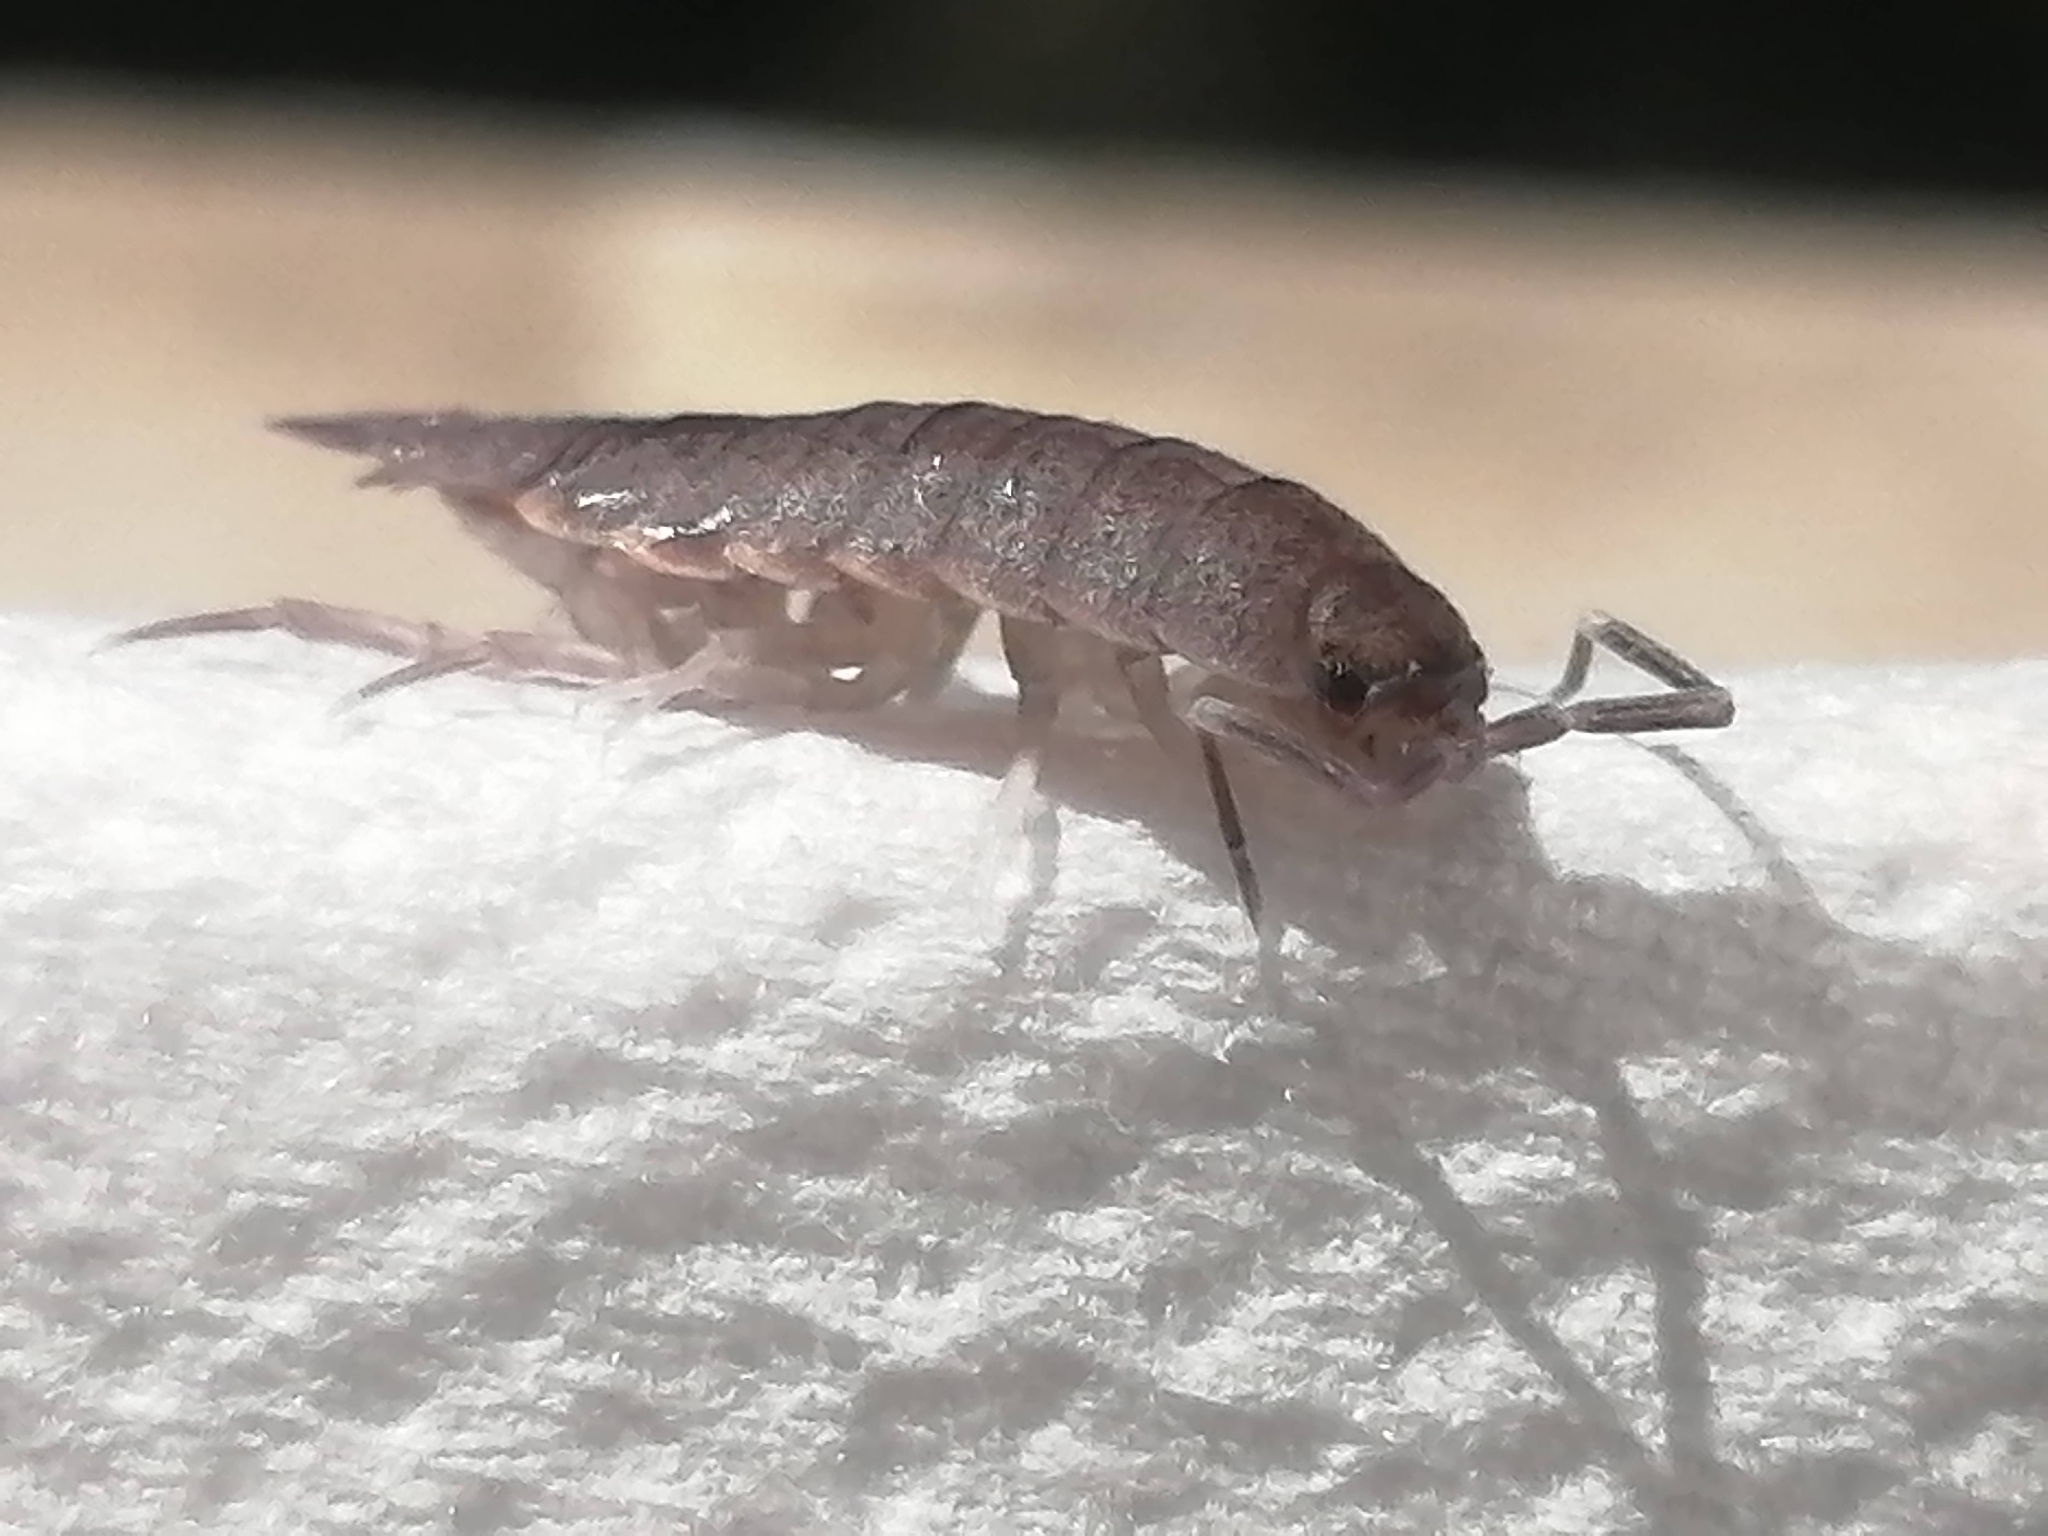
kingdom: Animalia
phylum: Arthropoda
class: Malacostraca
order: Isopoda
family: Porcellionidae
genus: Porcellionides
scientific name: Porcellionides pruinosus
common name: Plum woodlouse
